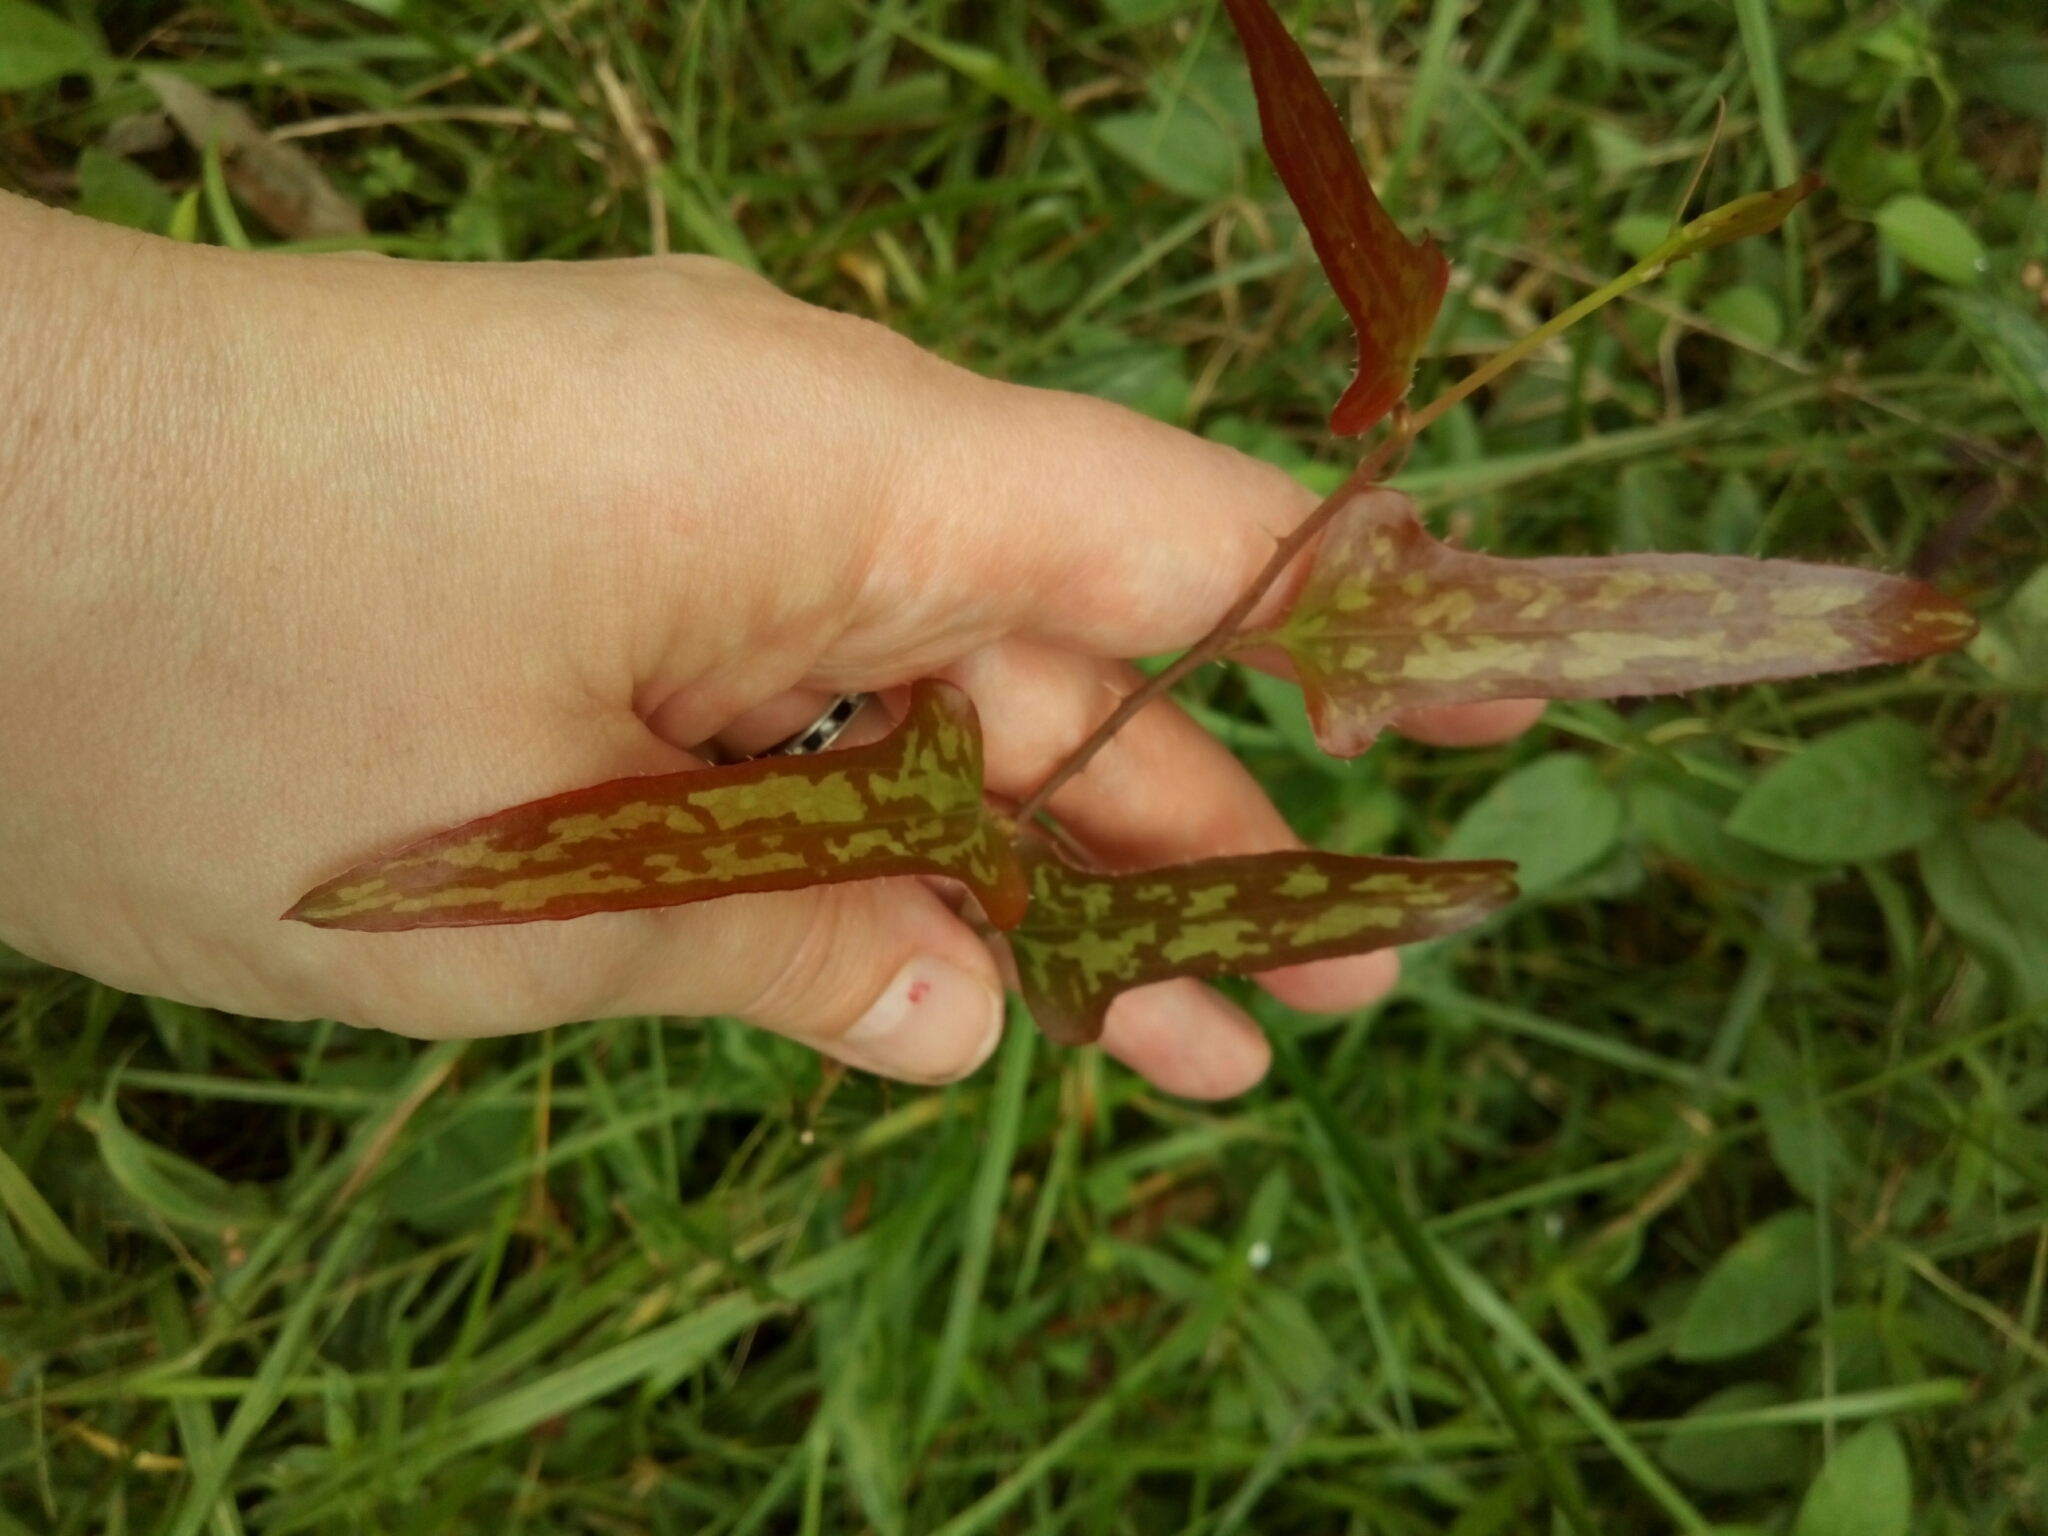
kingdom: Plantae
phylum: Tracheophyta
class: Liliopsida
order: Liliales
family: Smilacaceae
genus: Smilax
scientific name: Smilax bona-nox
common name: Catbrier
